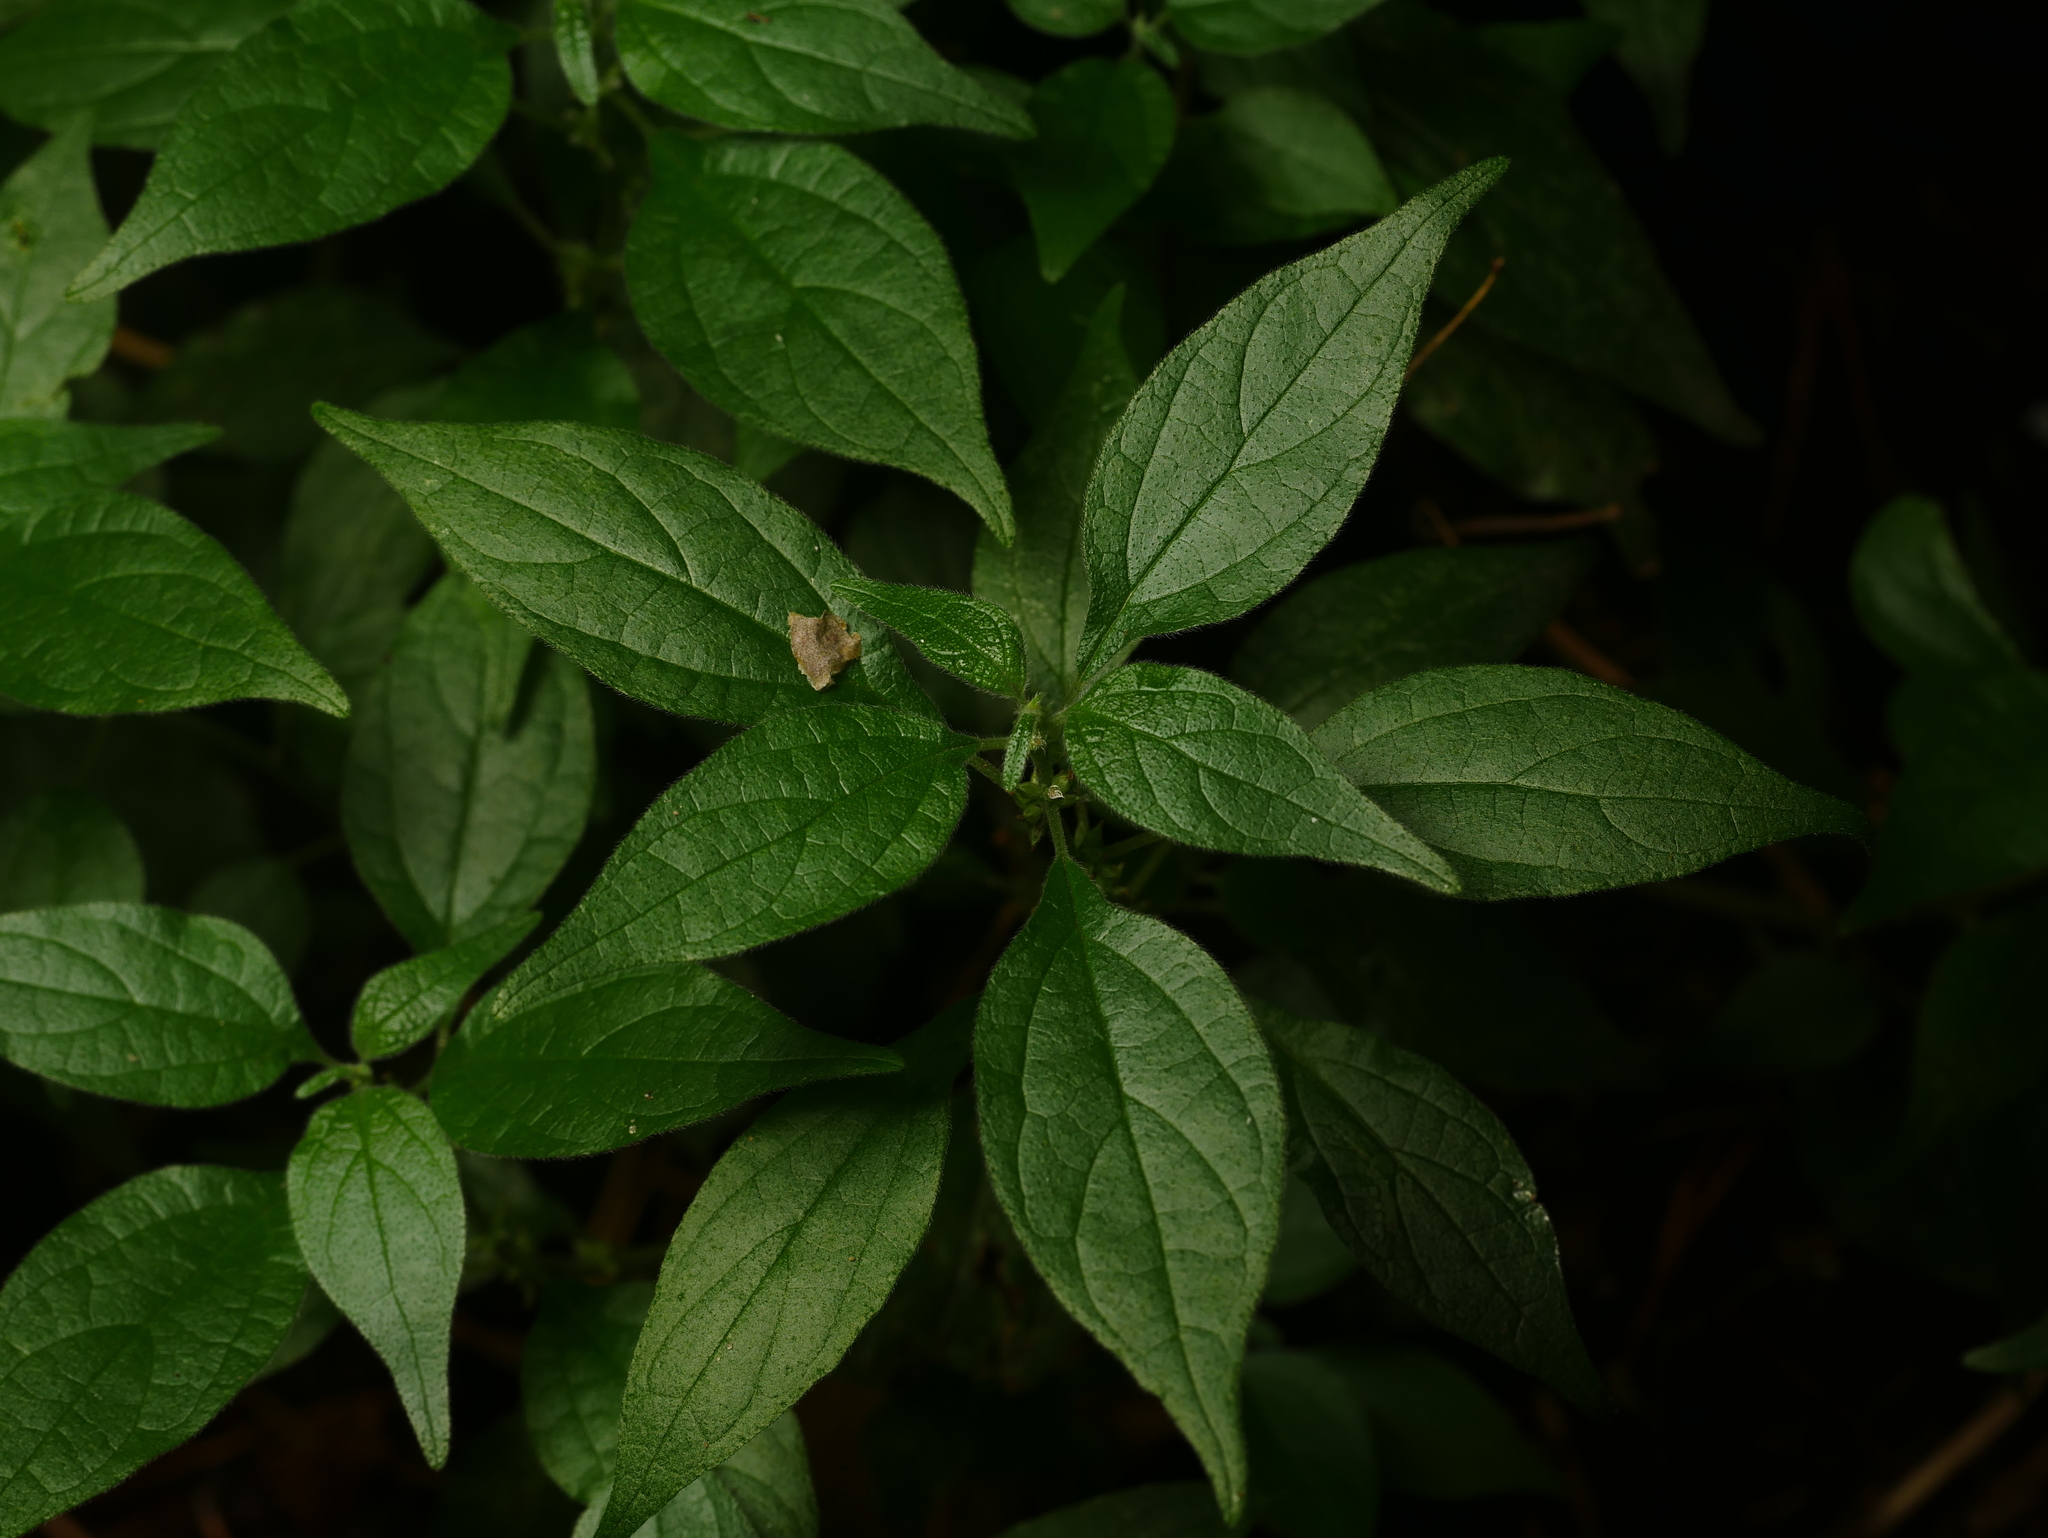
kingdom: Plantae
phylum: Tracheophyta
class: Magnoliopsida
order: Rosales
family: Urticaceae
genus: Parietaria
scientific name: Parietaria officinalis
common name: Eastern pellitory-of-the-wall
